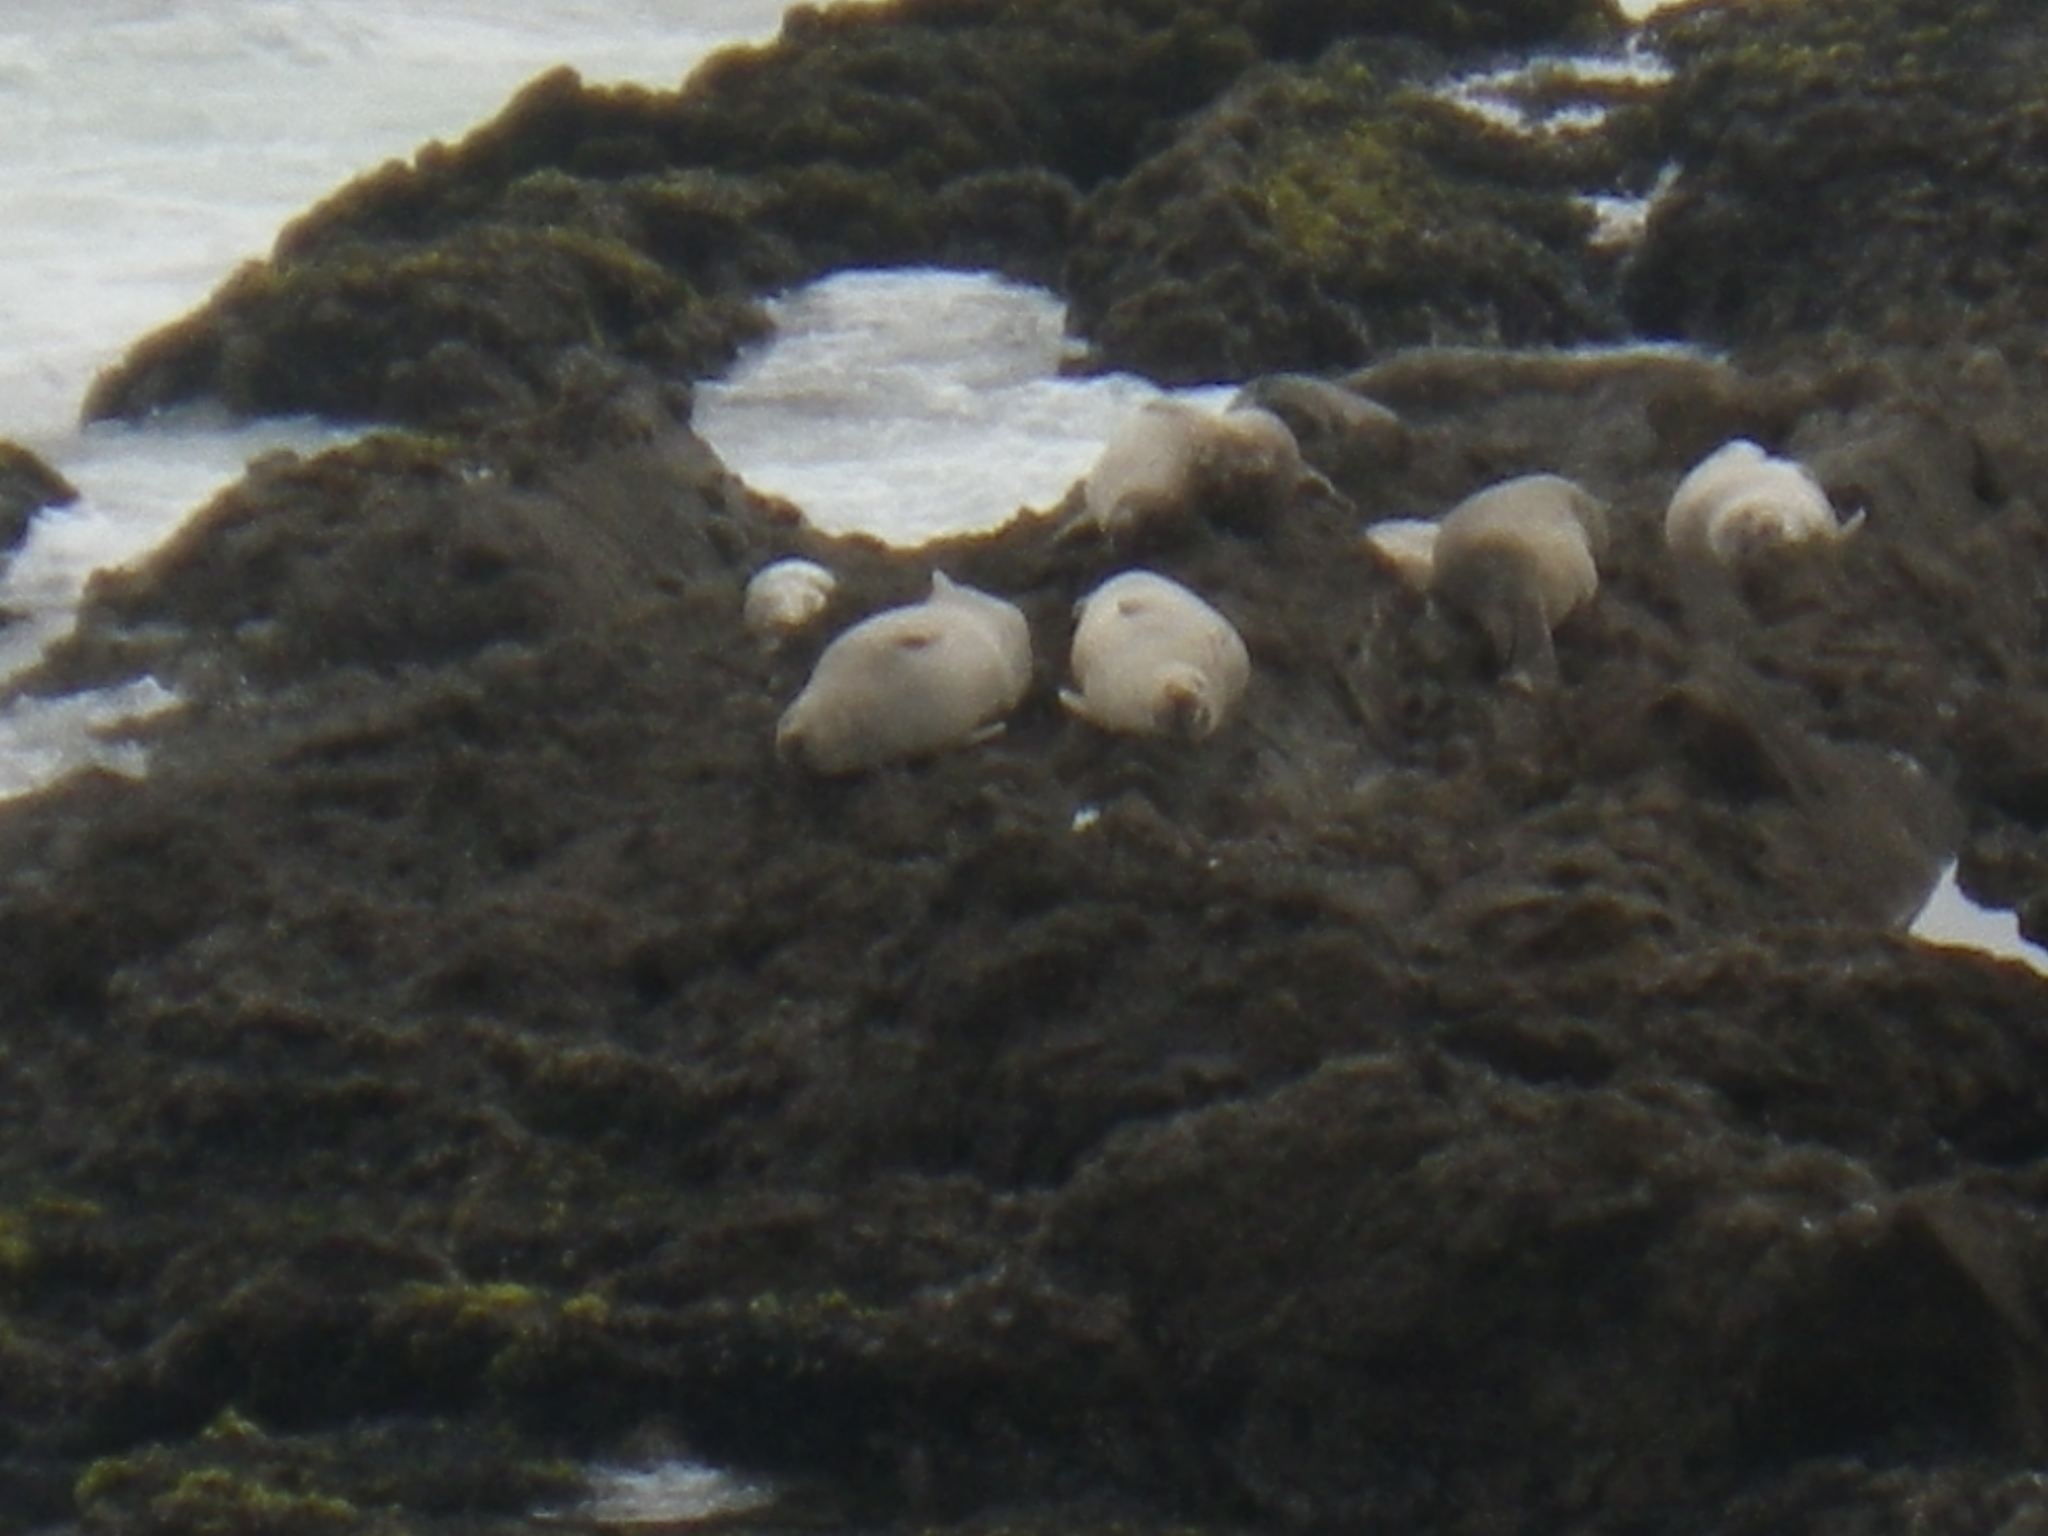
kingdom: Animalia
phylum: Chordata
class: Mammalia
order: Carnivora
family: Phocidae
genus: Phoca
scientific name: Phoca vitulina
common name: Harbor seal
